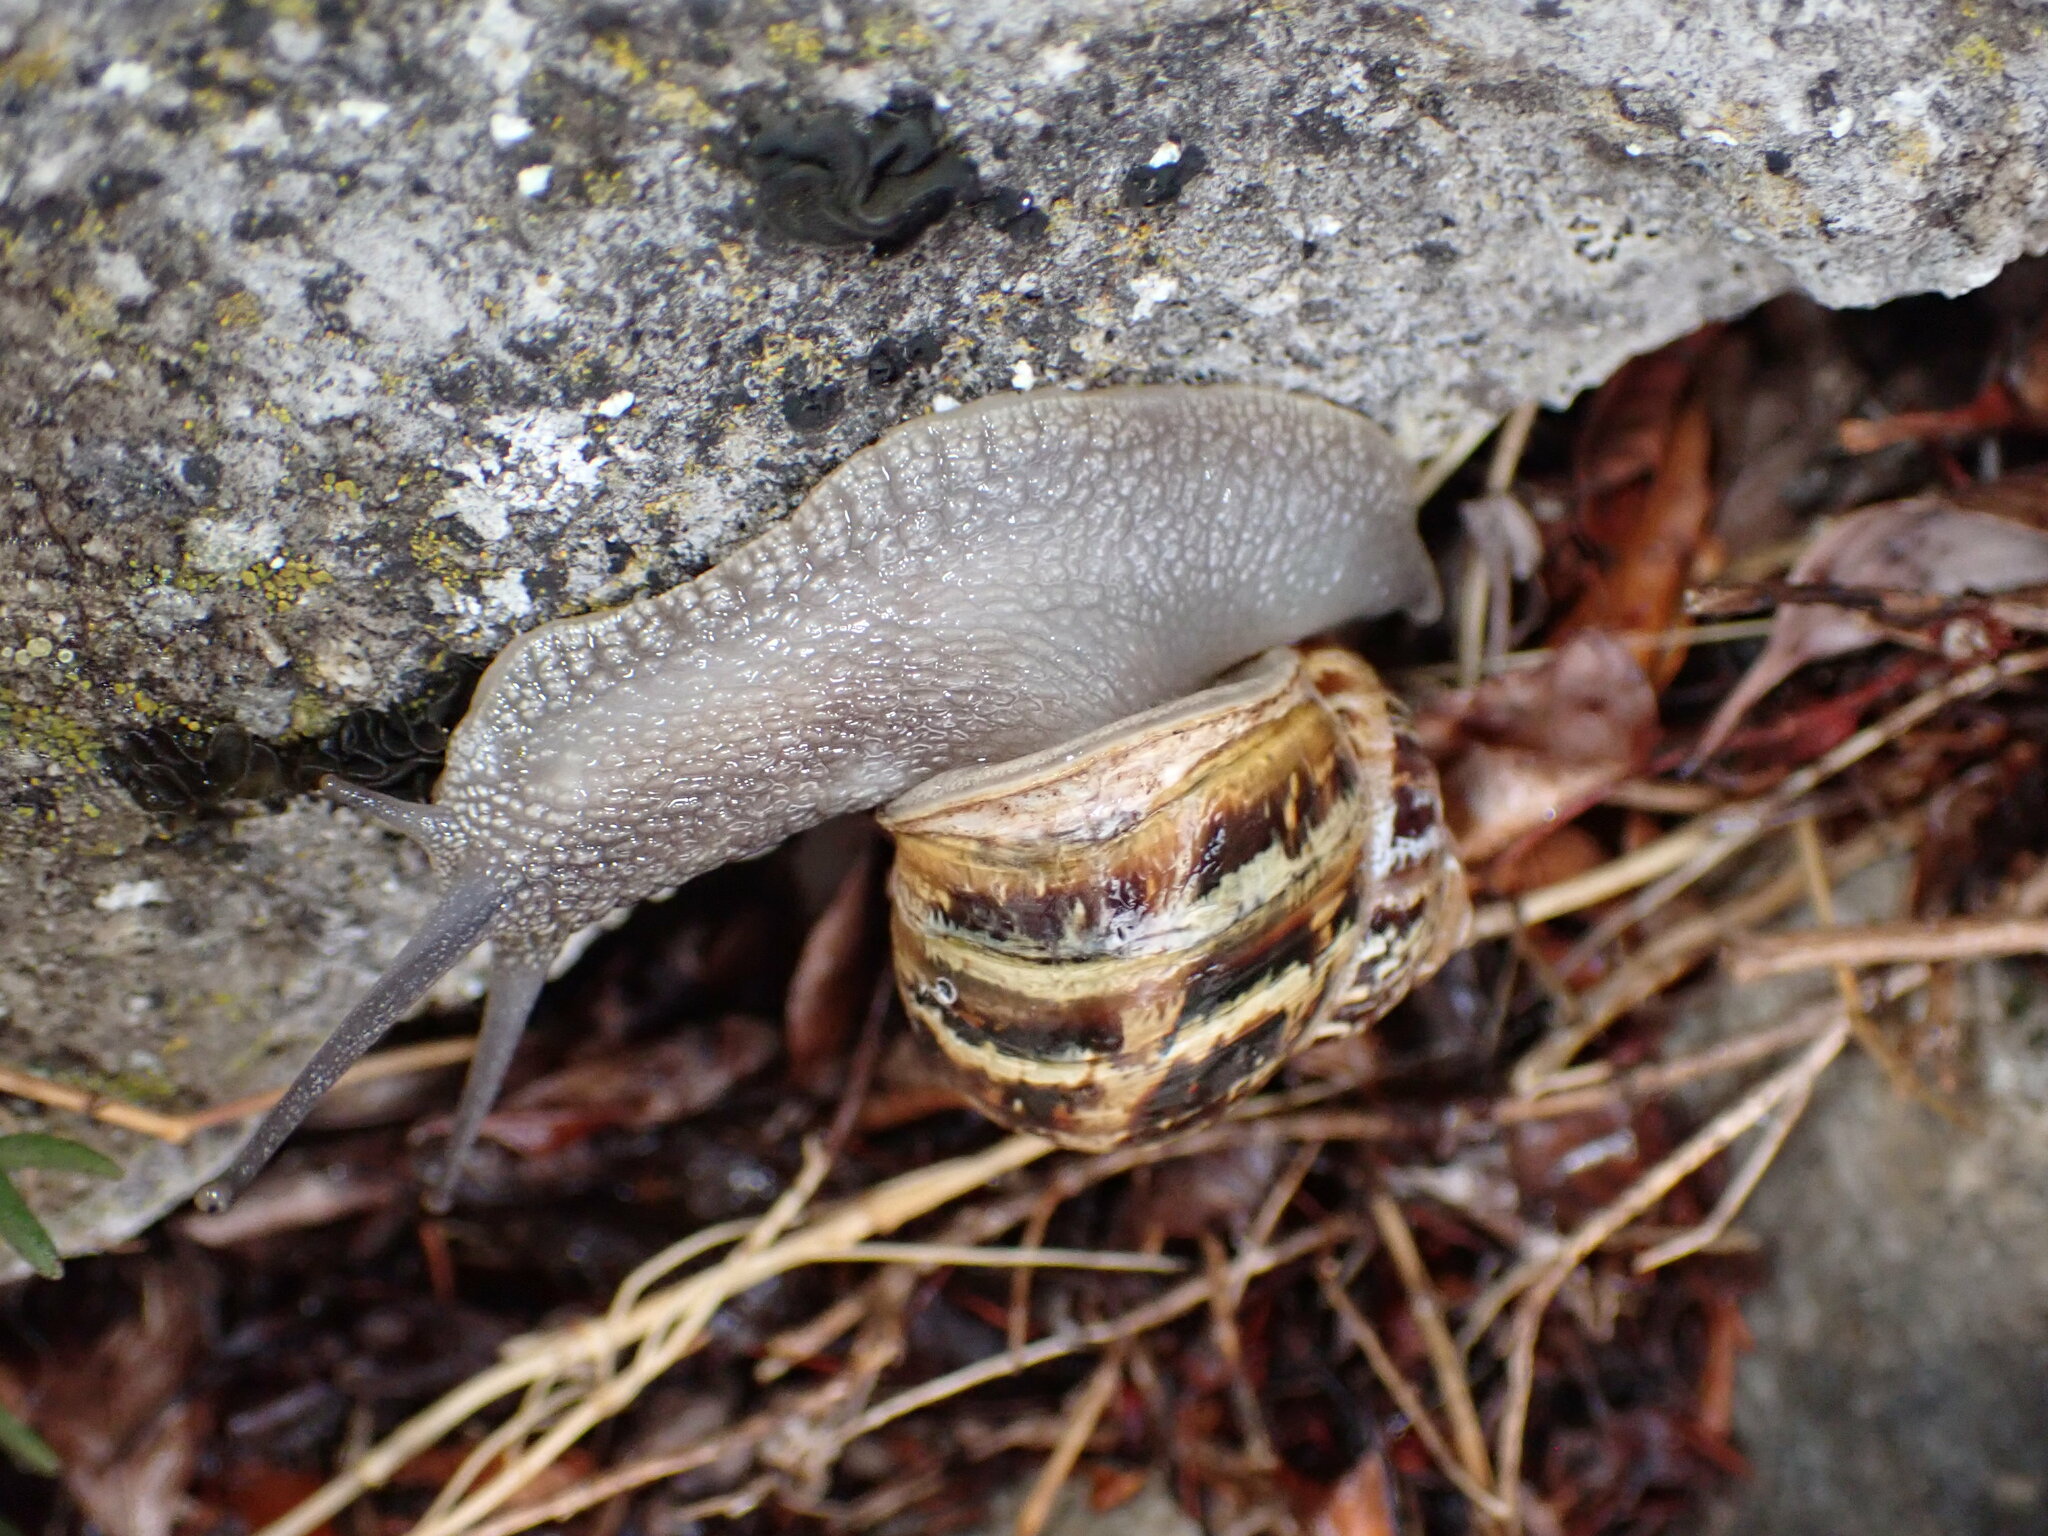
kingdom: Animalia
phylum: Mollusca
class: Gastropoda
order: Stylommatophora
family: Helicidae
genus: Cornu
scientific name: Cornu aspersum
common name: Brown garden snail
